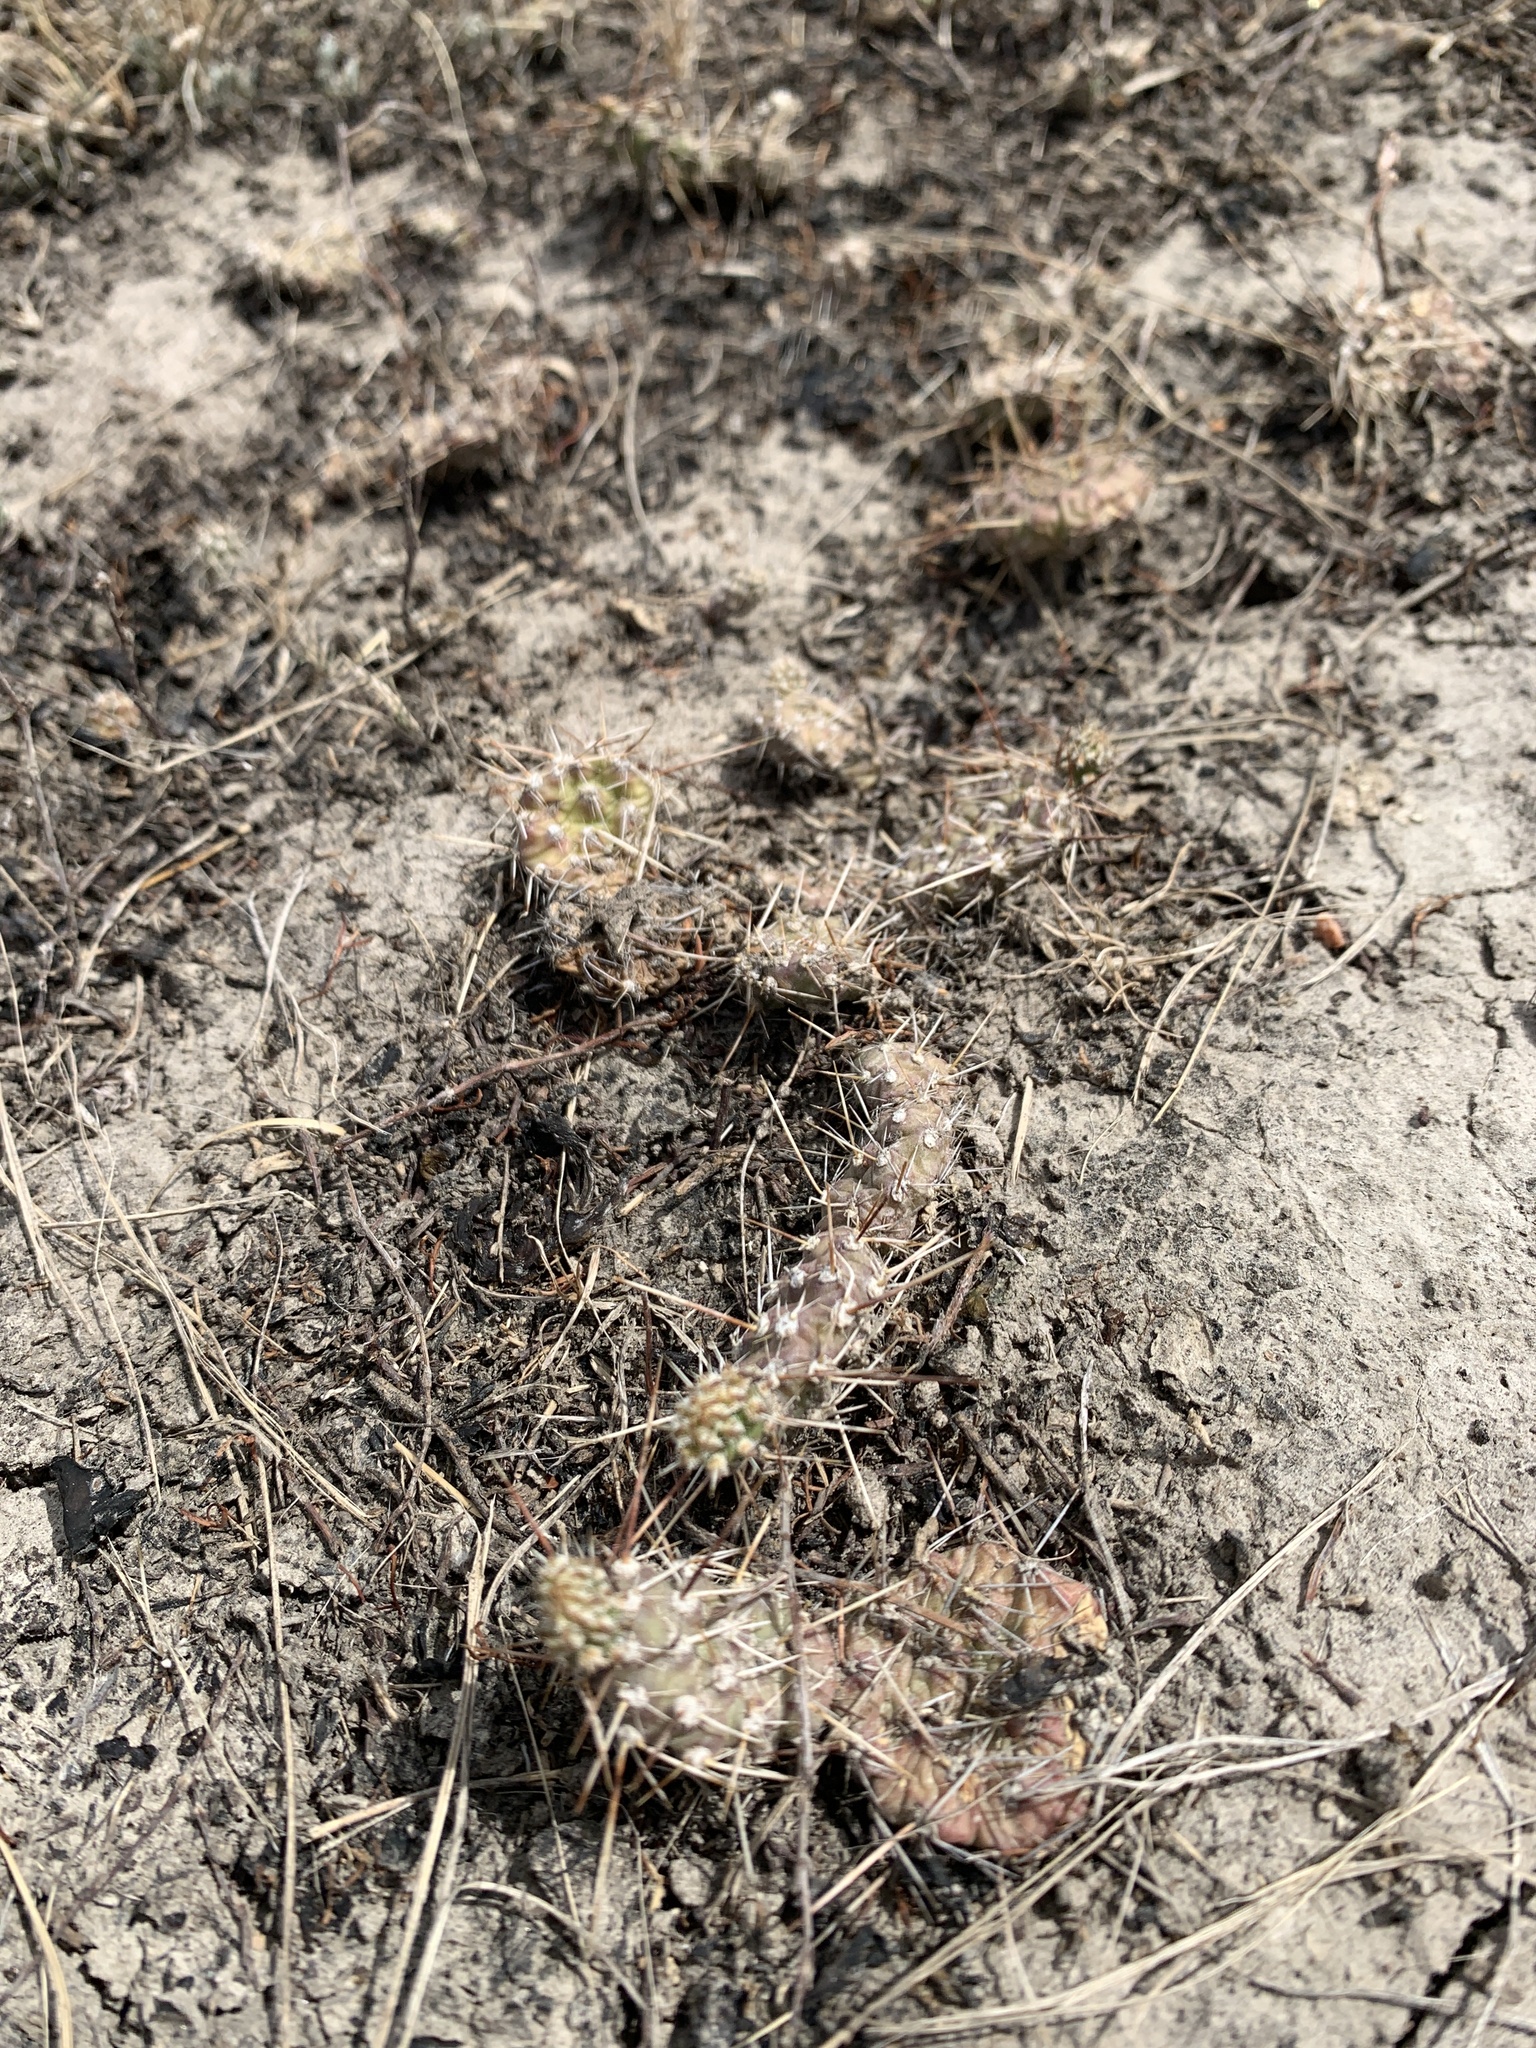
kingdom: Plantae
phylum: Tracheophyta
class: Magnoliopsida
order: Caryophyllales
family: Cactaceae
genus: Opuntia
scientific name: Opuntia fragilis
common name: Brittle cactus
